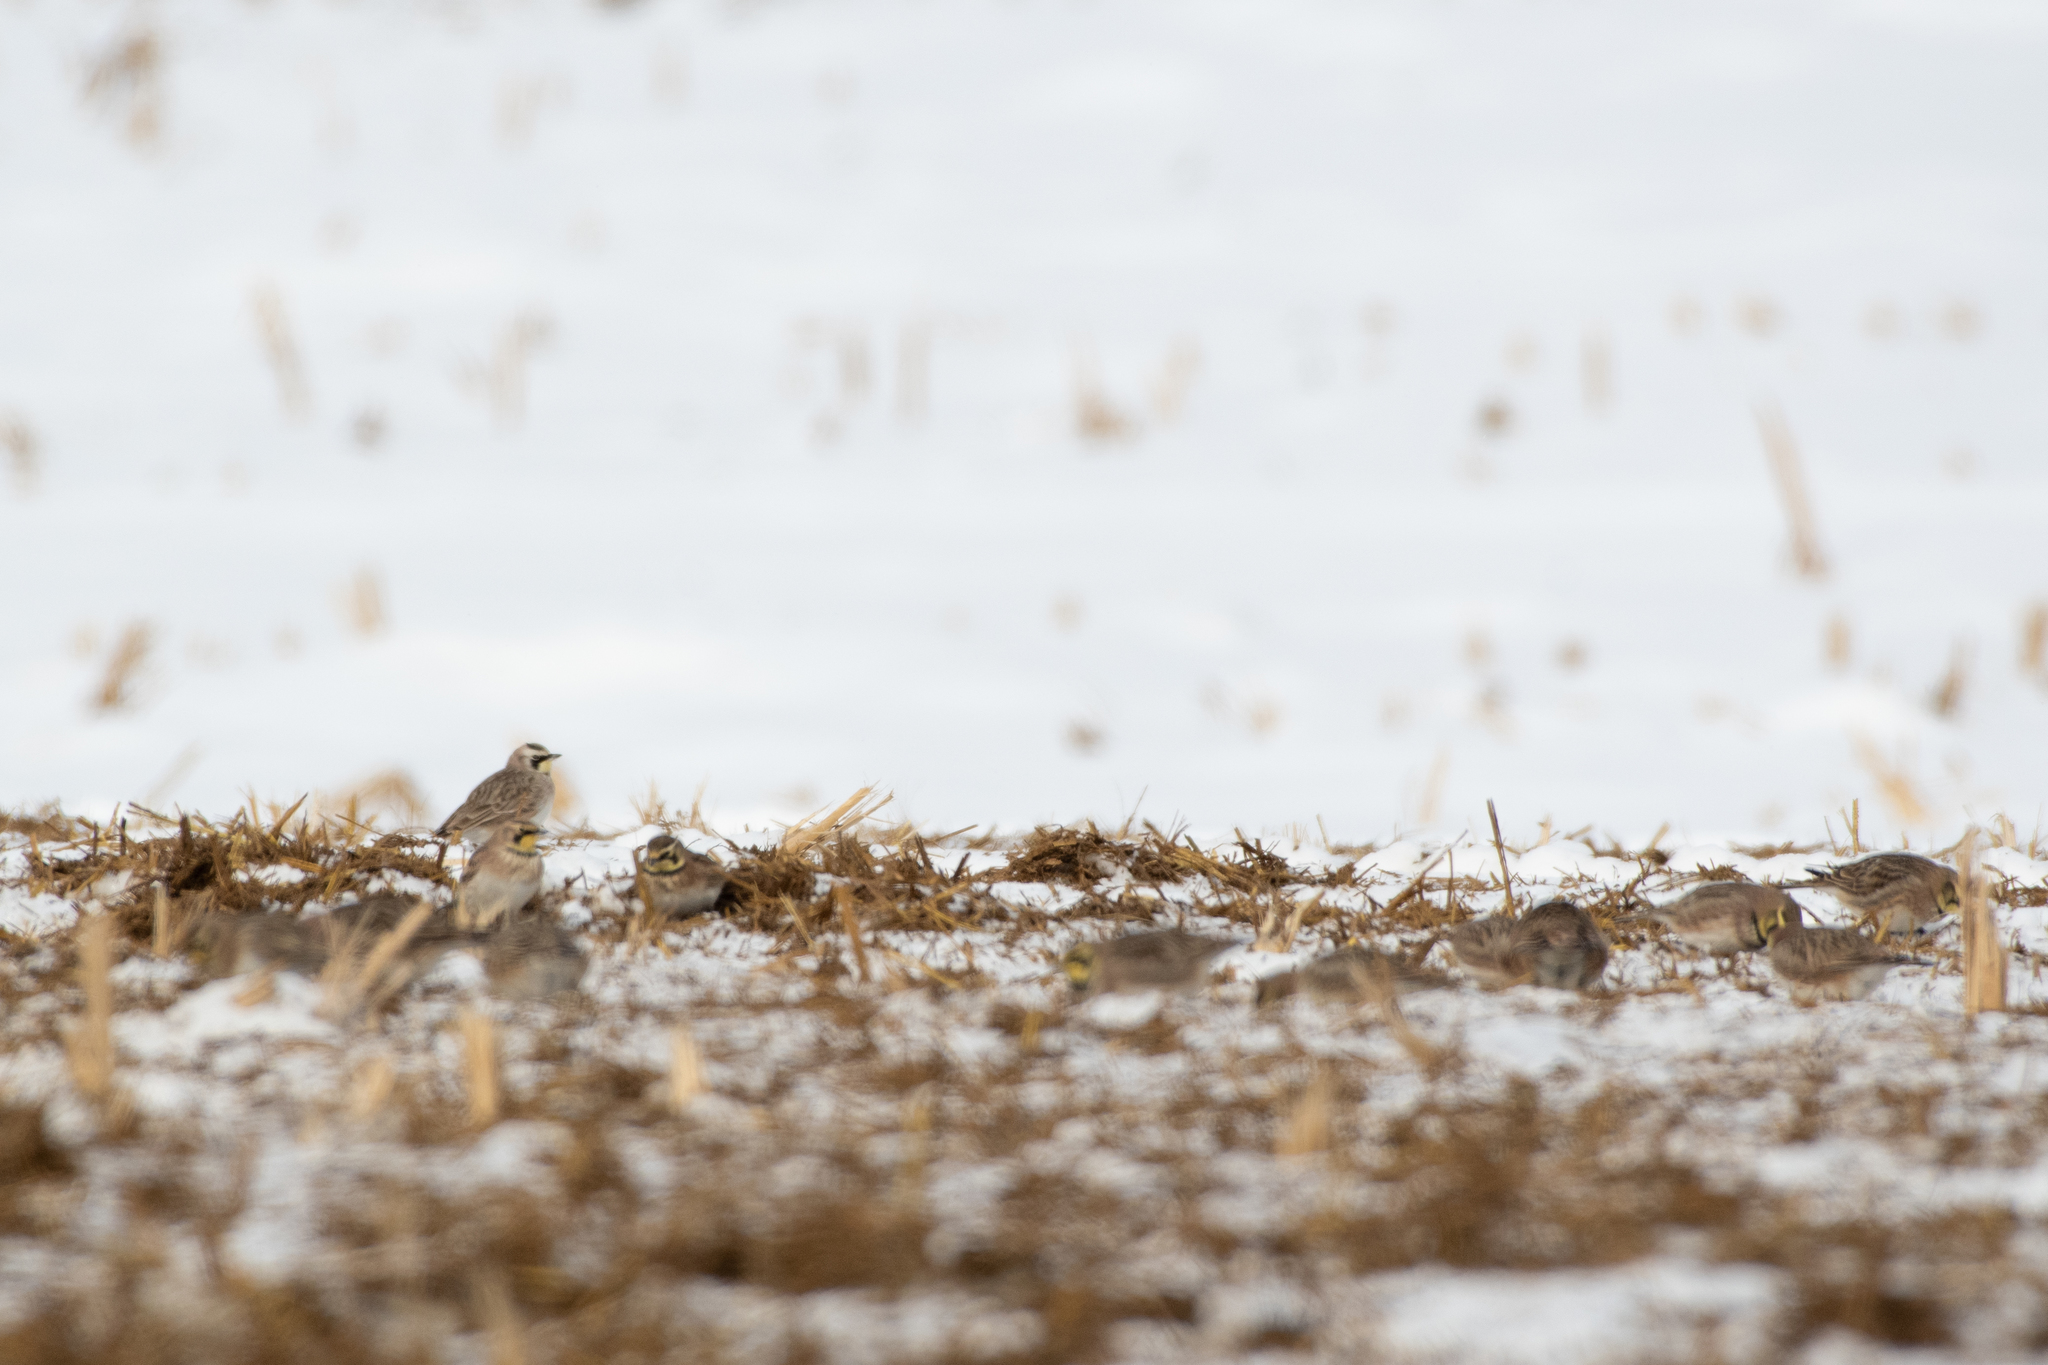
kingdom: Animalia
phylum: Chordata
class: Aves
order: Passeriformes
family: Alaudidae
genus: Eremophila
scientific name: Eremophila alpestris
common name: Horned lark
